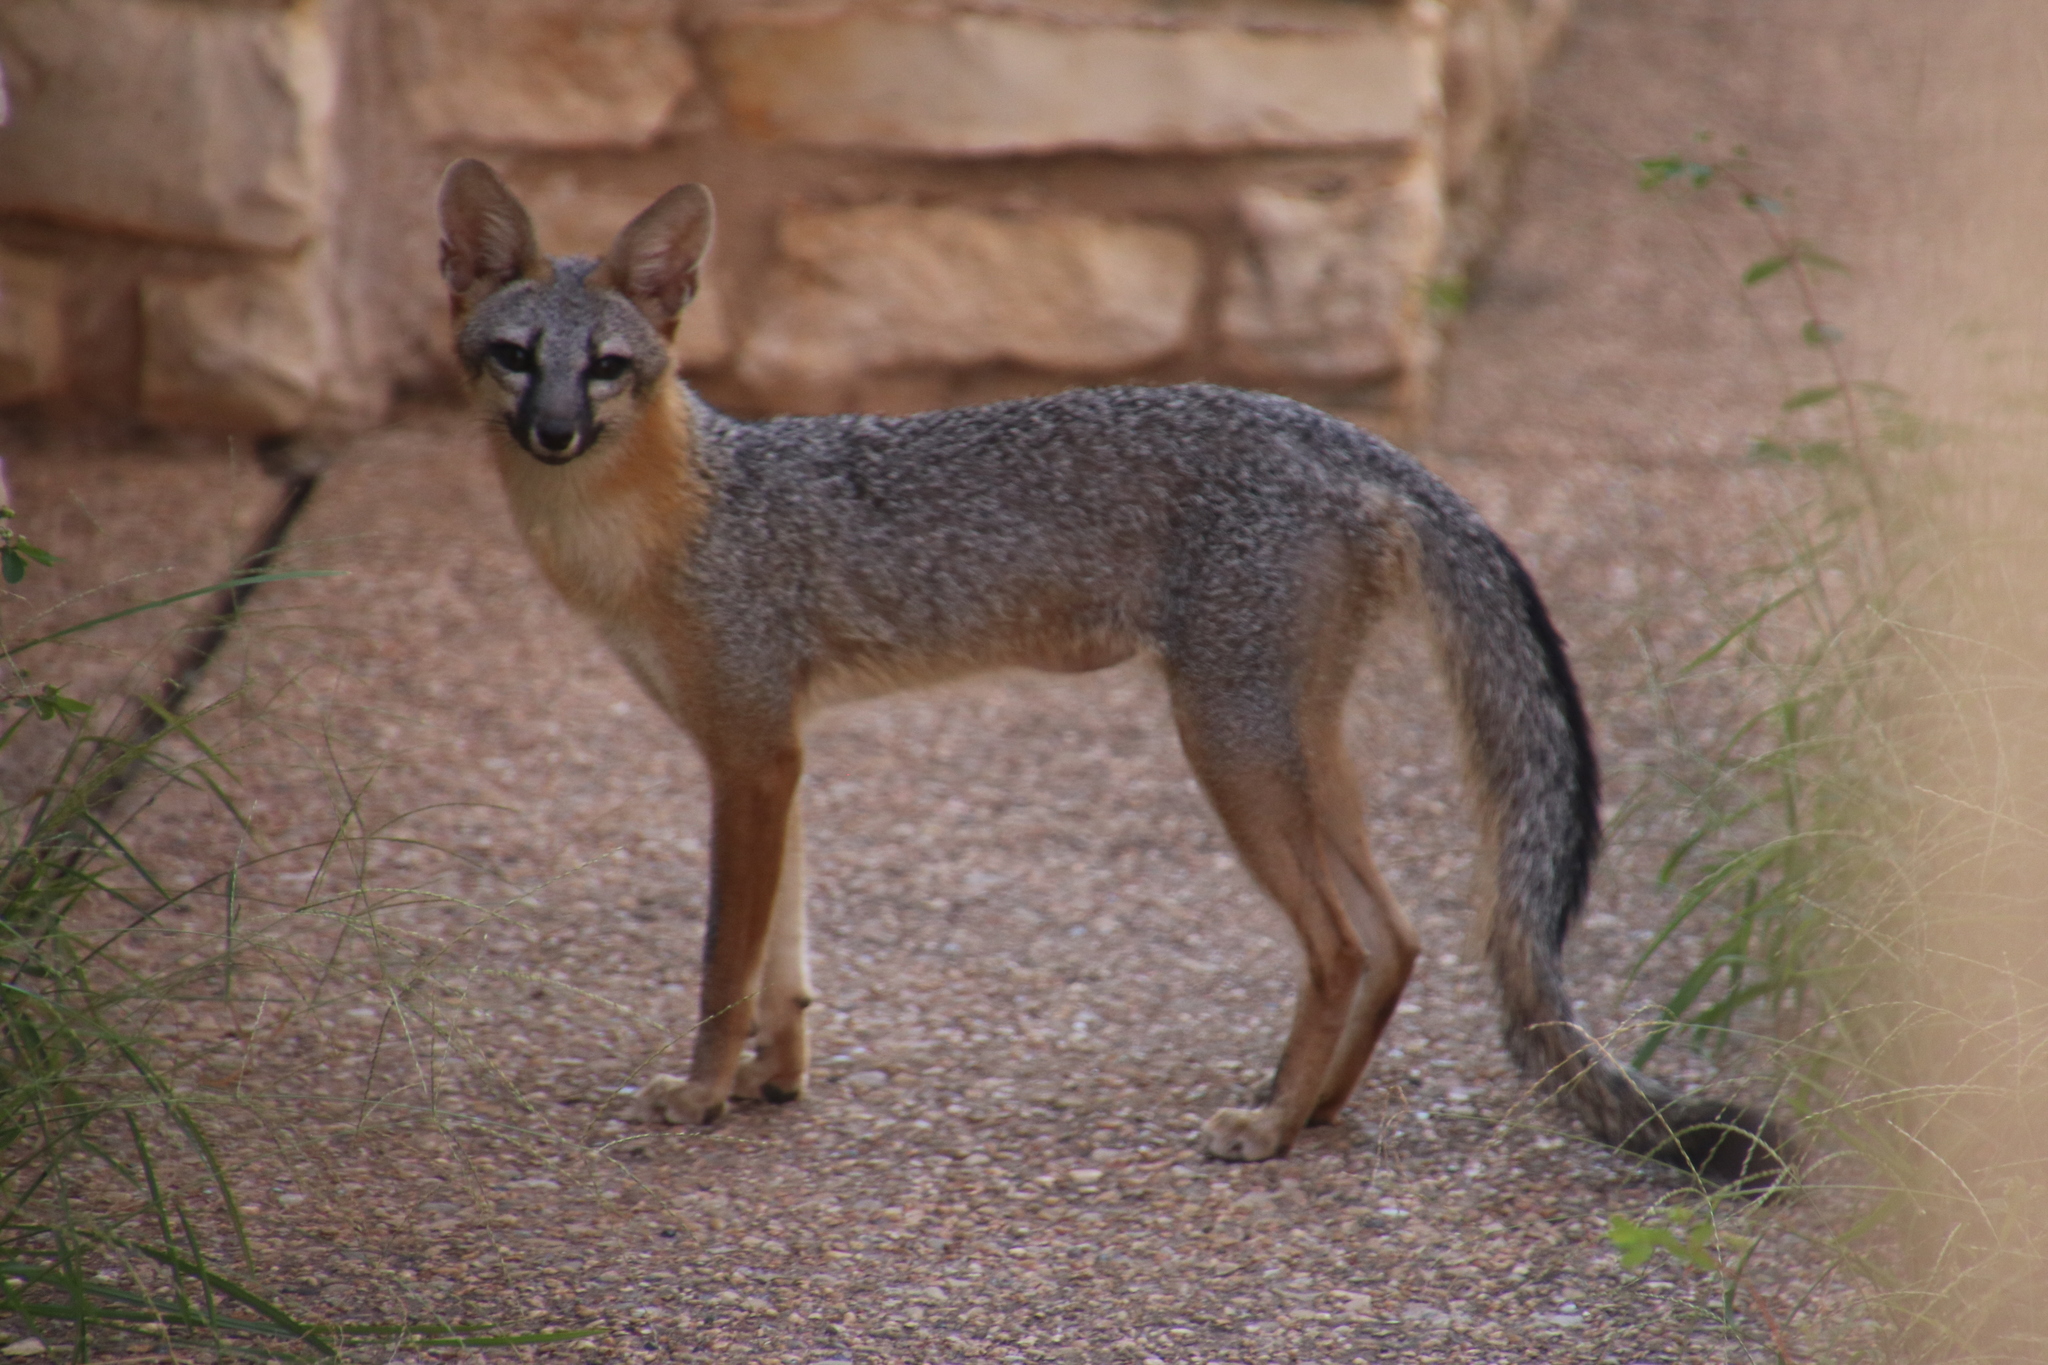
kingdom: Animalia
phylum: Chordata
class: Mammalia
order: Carnivora
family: Canidae
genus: Urocyon
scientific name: Urocyon cinereoargenteus
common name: Gray fox
